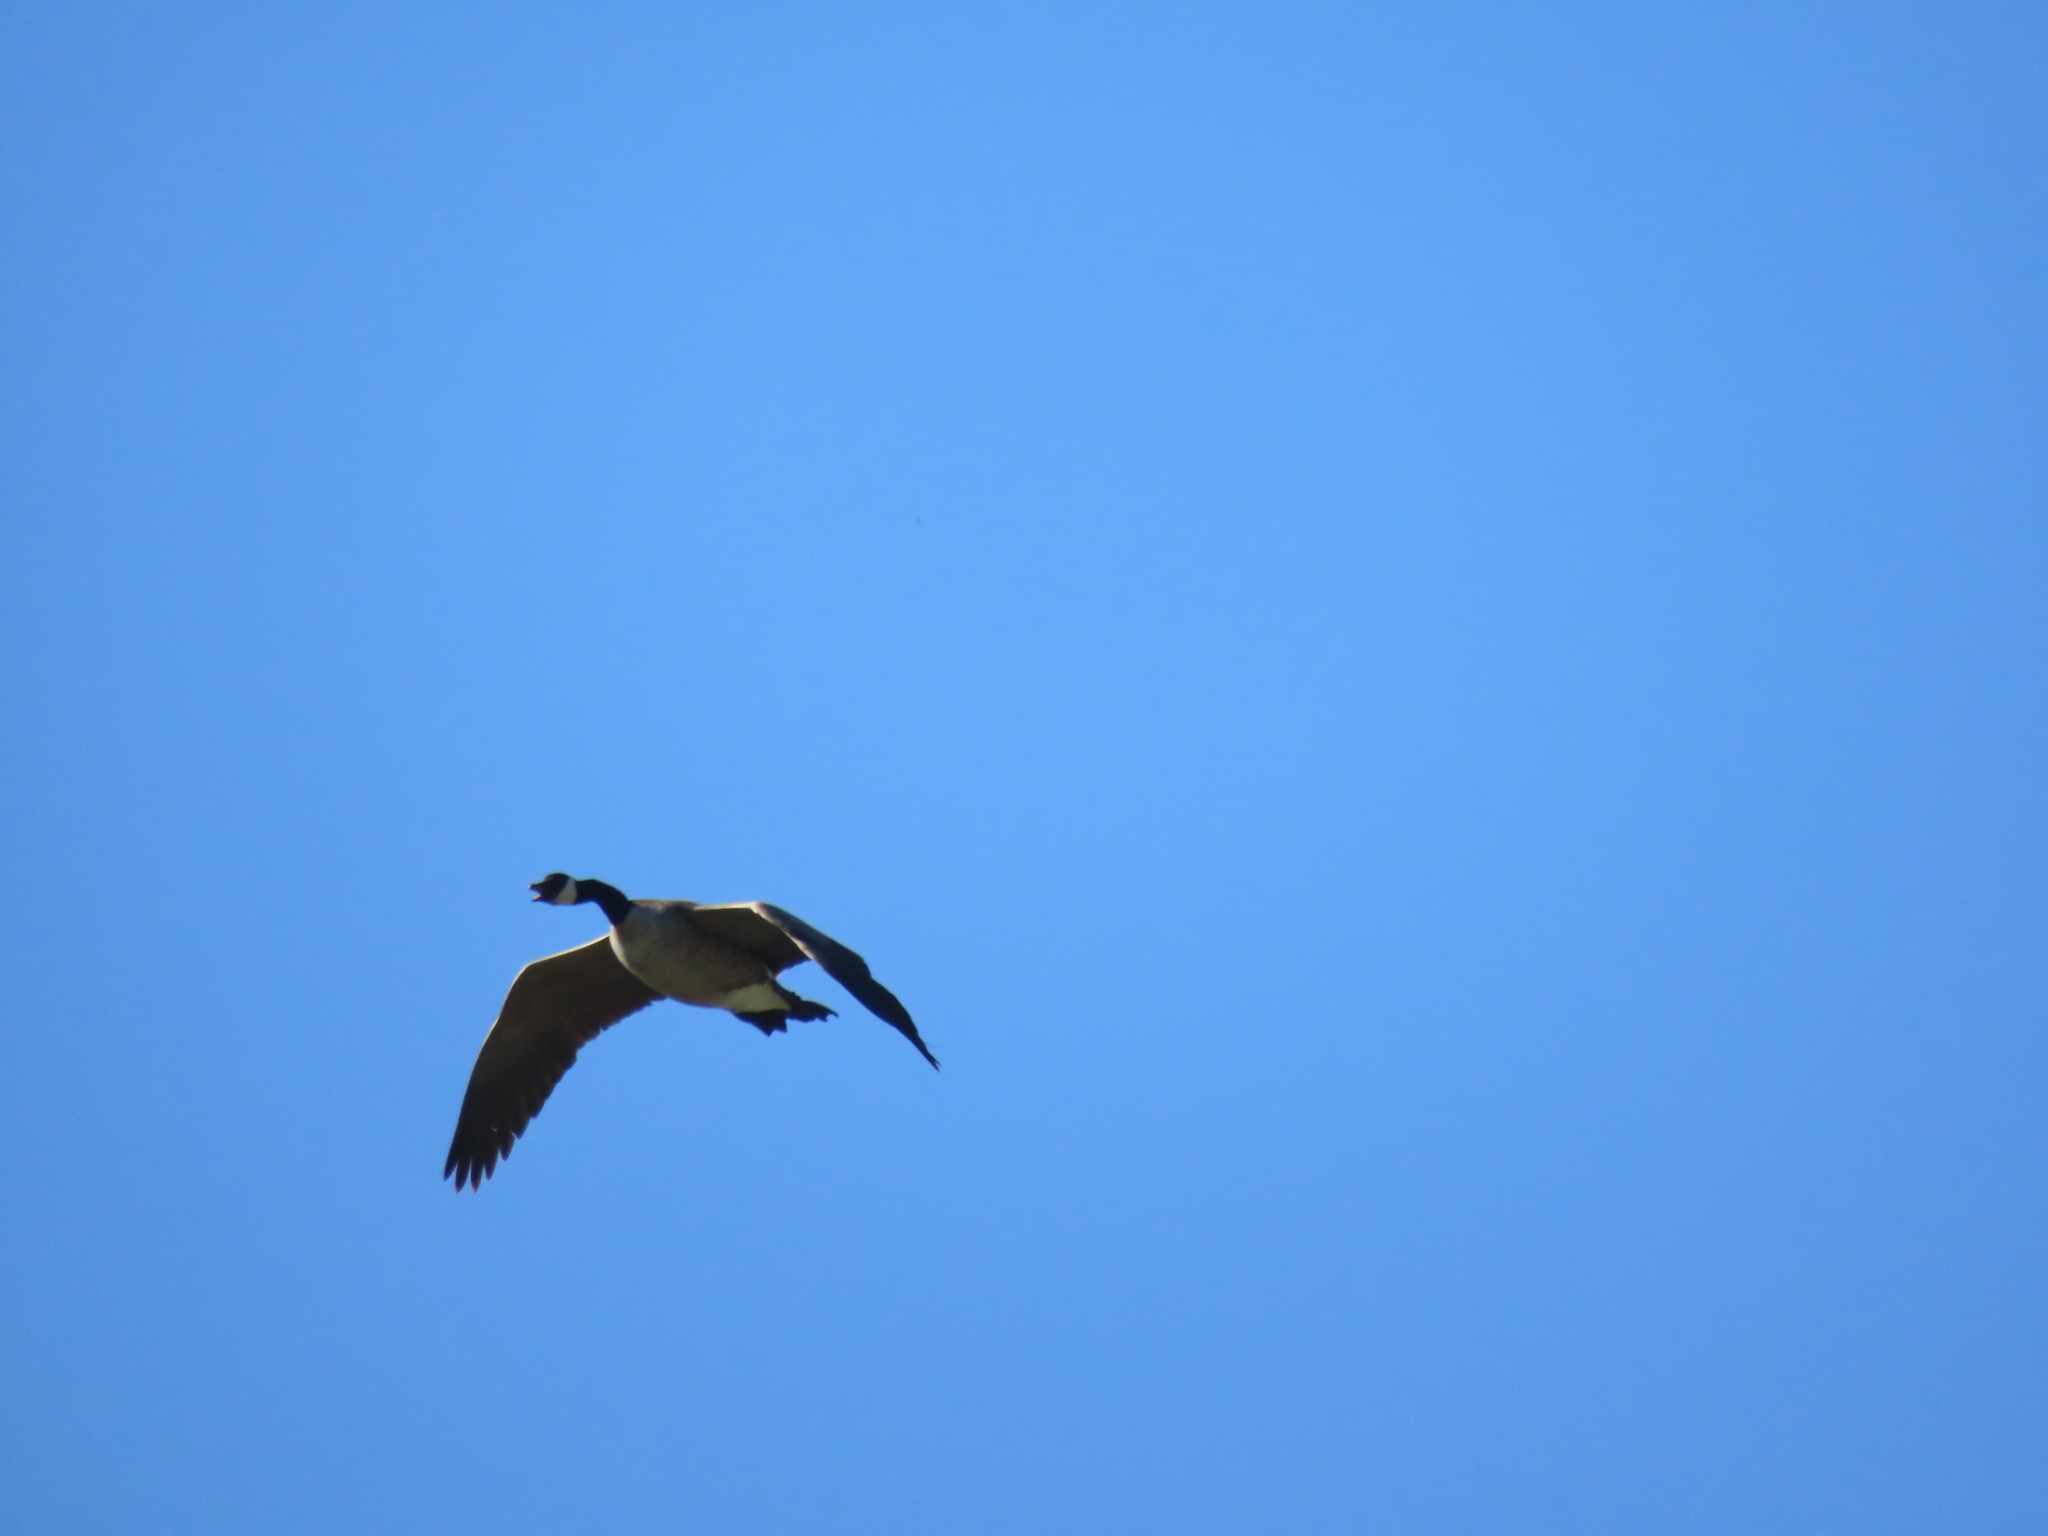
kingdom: Animalia
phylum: Chordata
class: Aves
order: Anseriformes
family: Anatidae
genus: Branta
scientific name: Branta canadensis
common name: Canada goose
